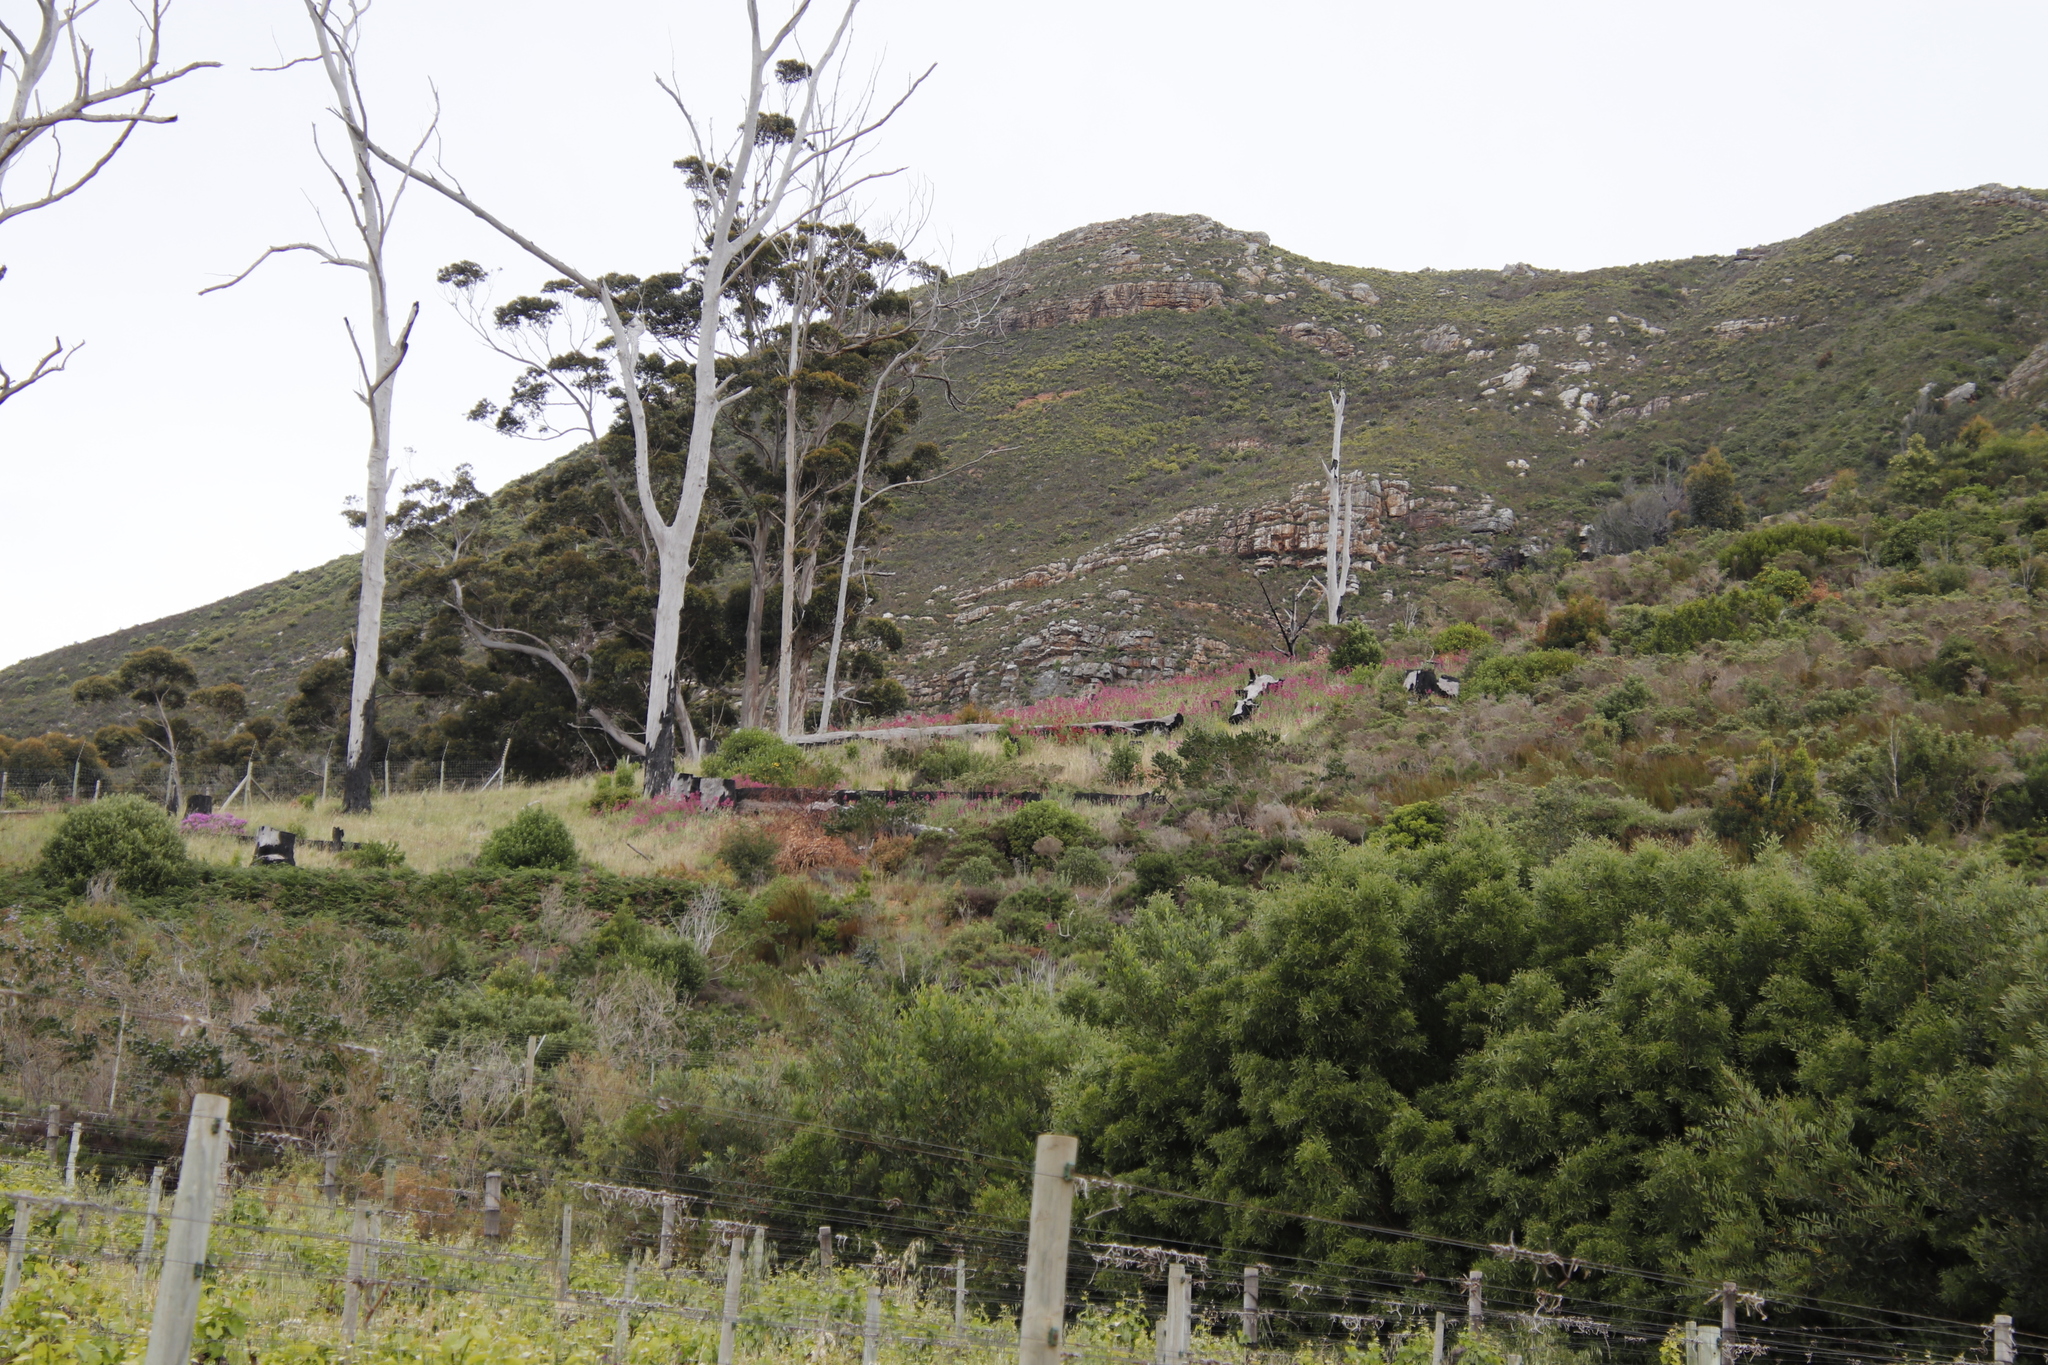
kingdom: Plantae
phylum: Tracheophyta
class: Magnoliopsida
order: Dipsacales
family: Caprifoliaceae
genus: Centranthus
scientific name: Centranthus ruber
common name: Red valerian
